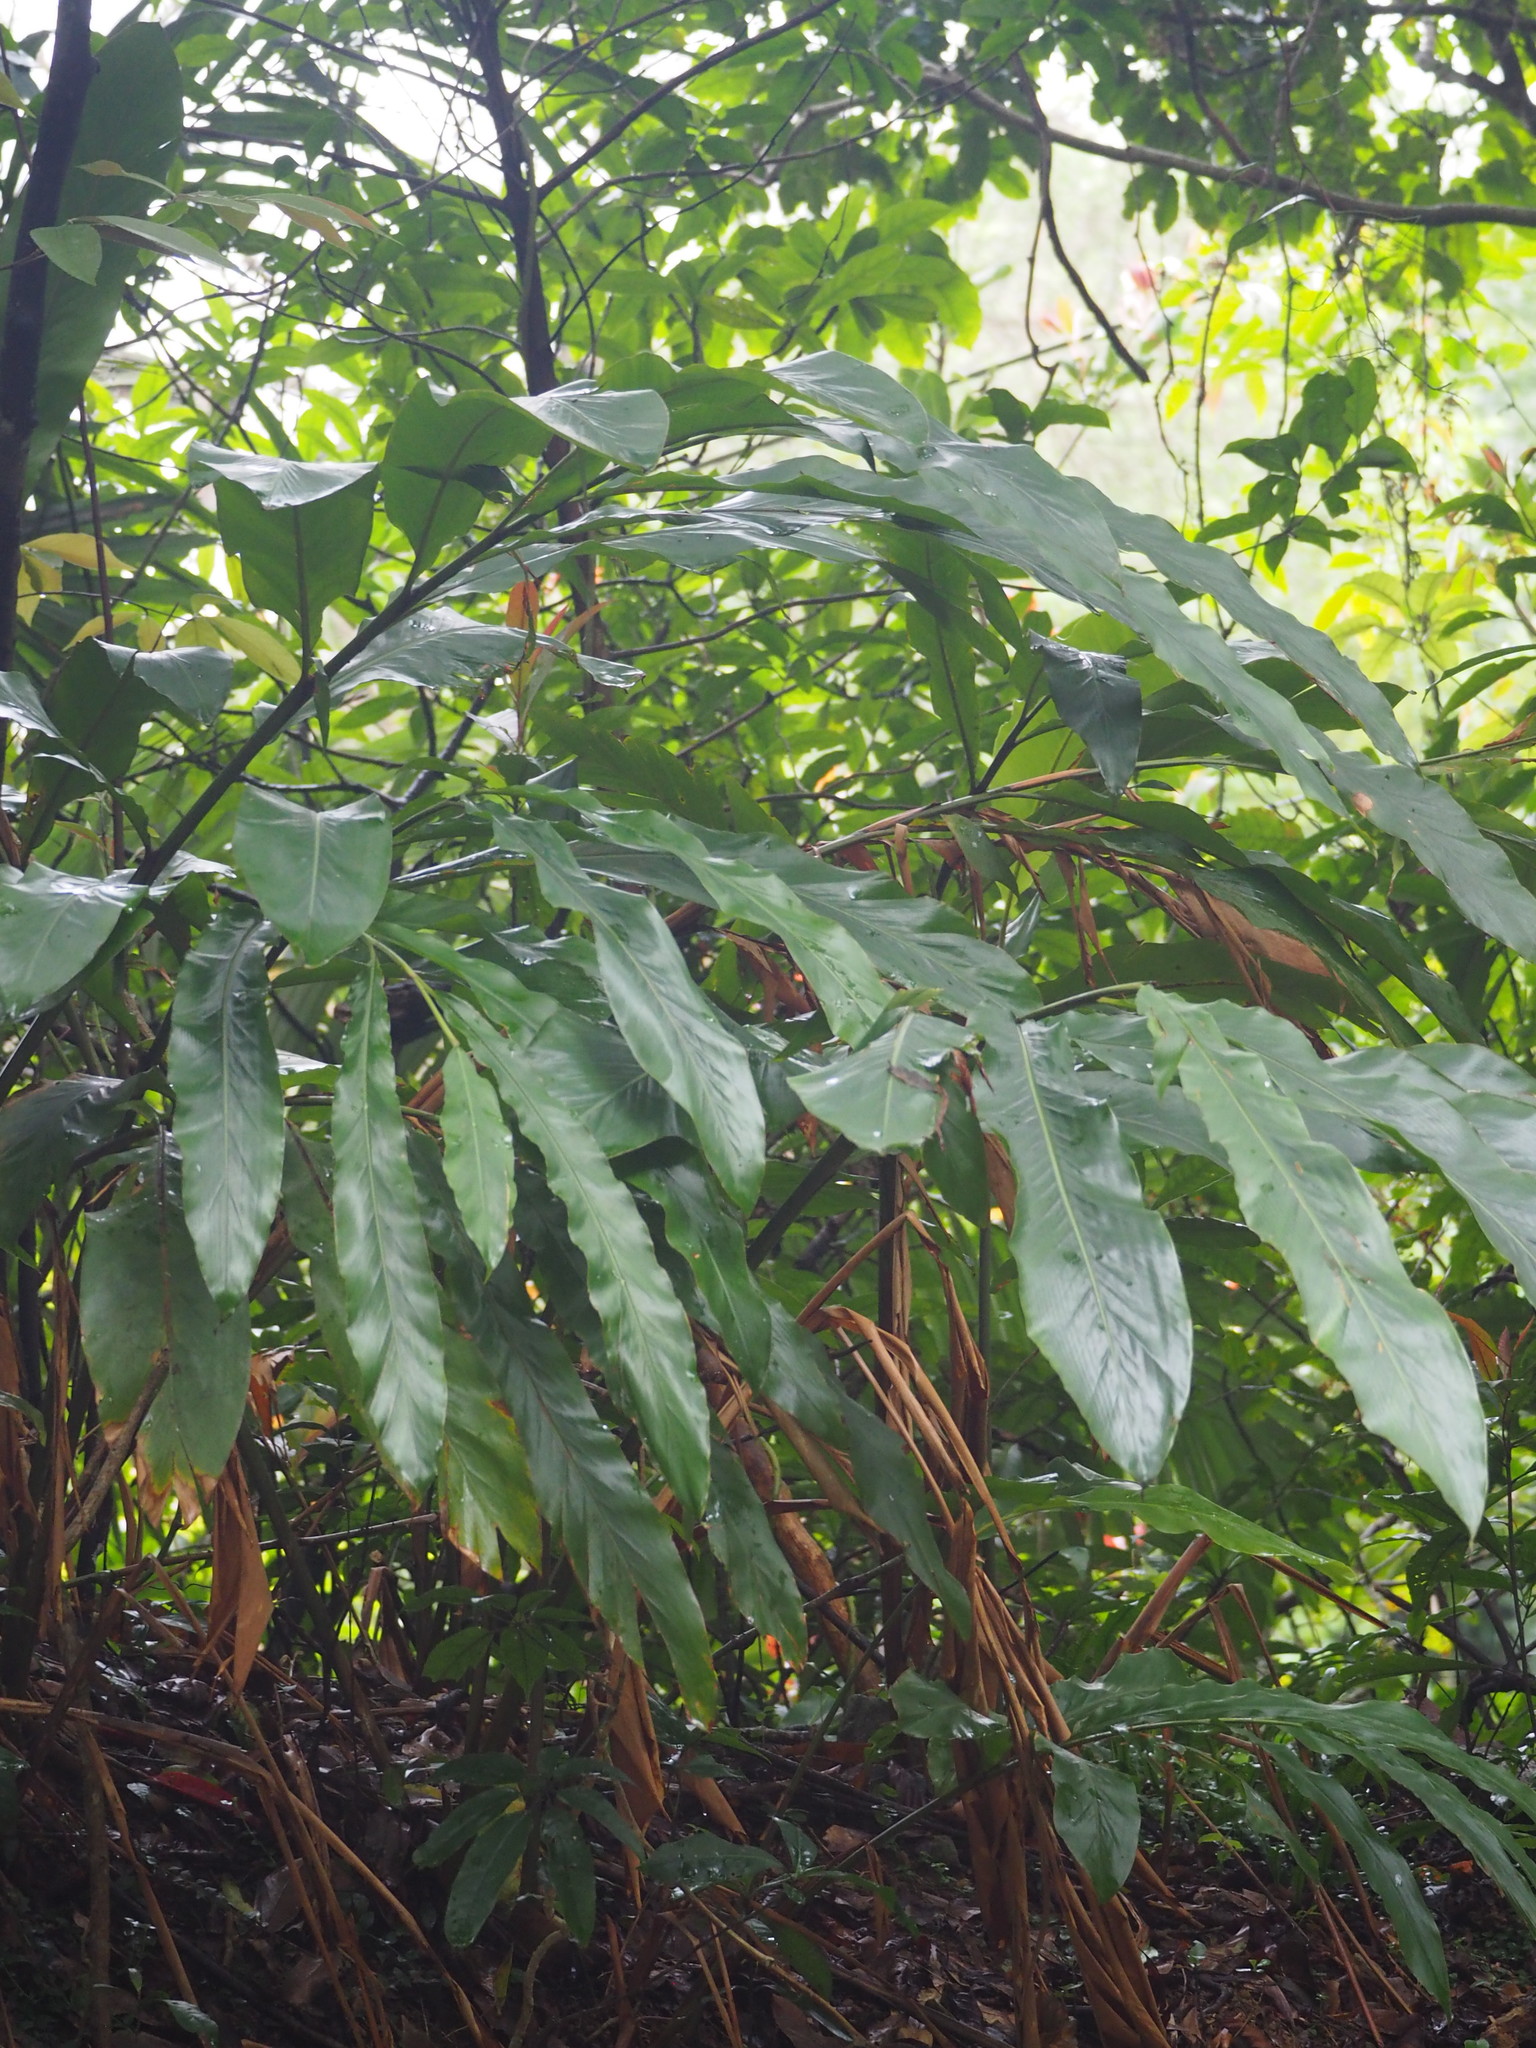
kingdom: Plantae
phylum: Tracheophyta
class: Liliopsida
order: Zingiberales
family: Zingiberaceae
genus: Alpinia
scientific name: Alpinia uraiensis
